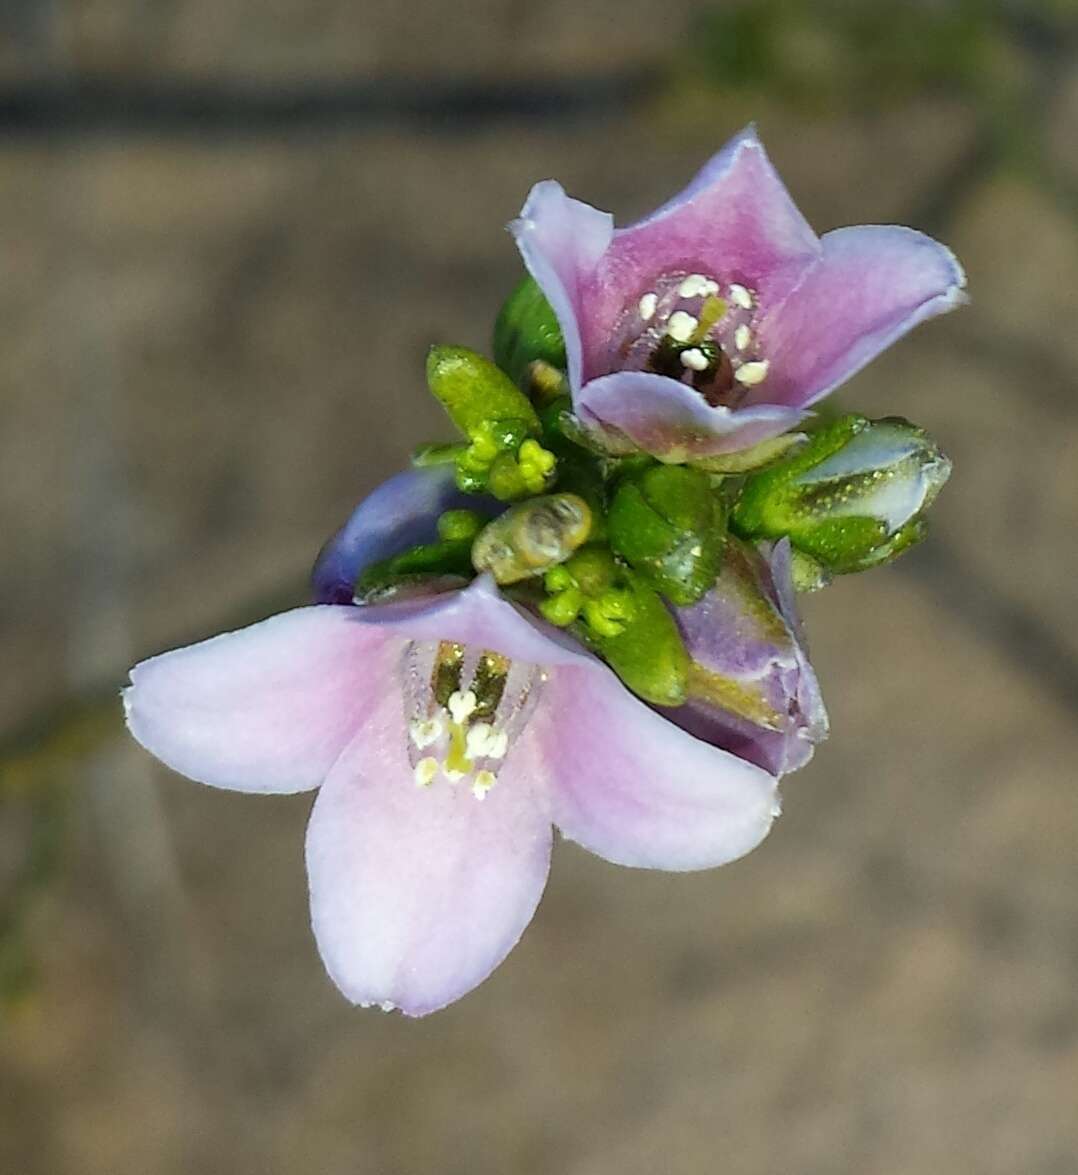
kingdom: Plantae
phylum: Tracheophyta
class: Magnoliopsida
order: Sapindales
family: Rutaceae
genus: Cyanothamnus
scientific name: Cyanothamnus coerulescens
